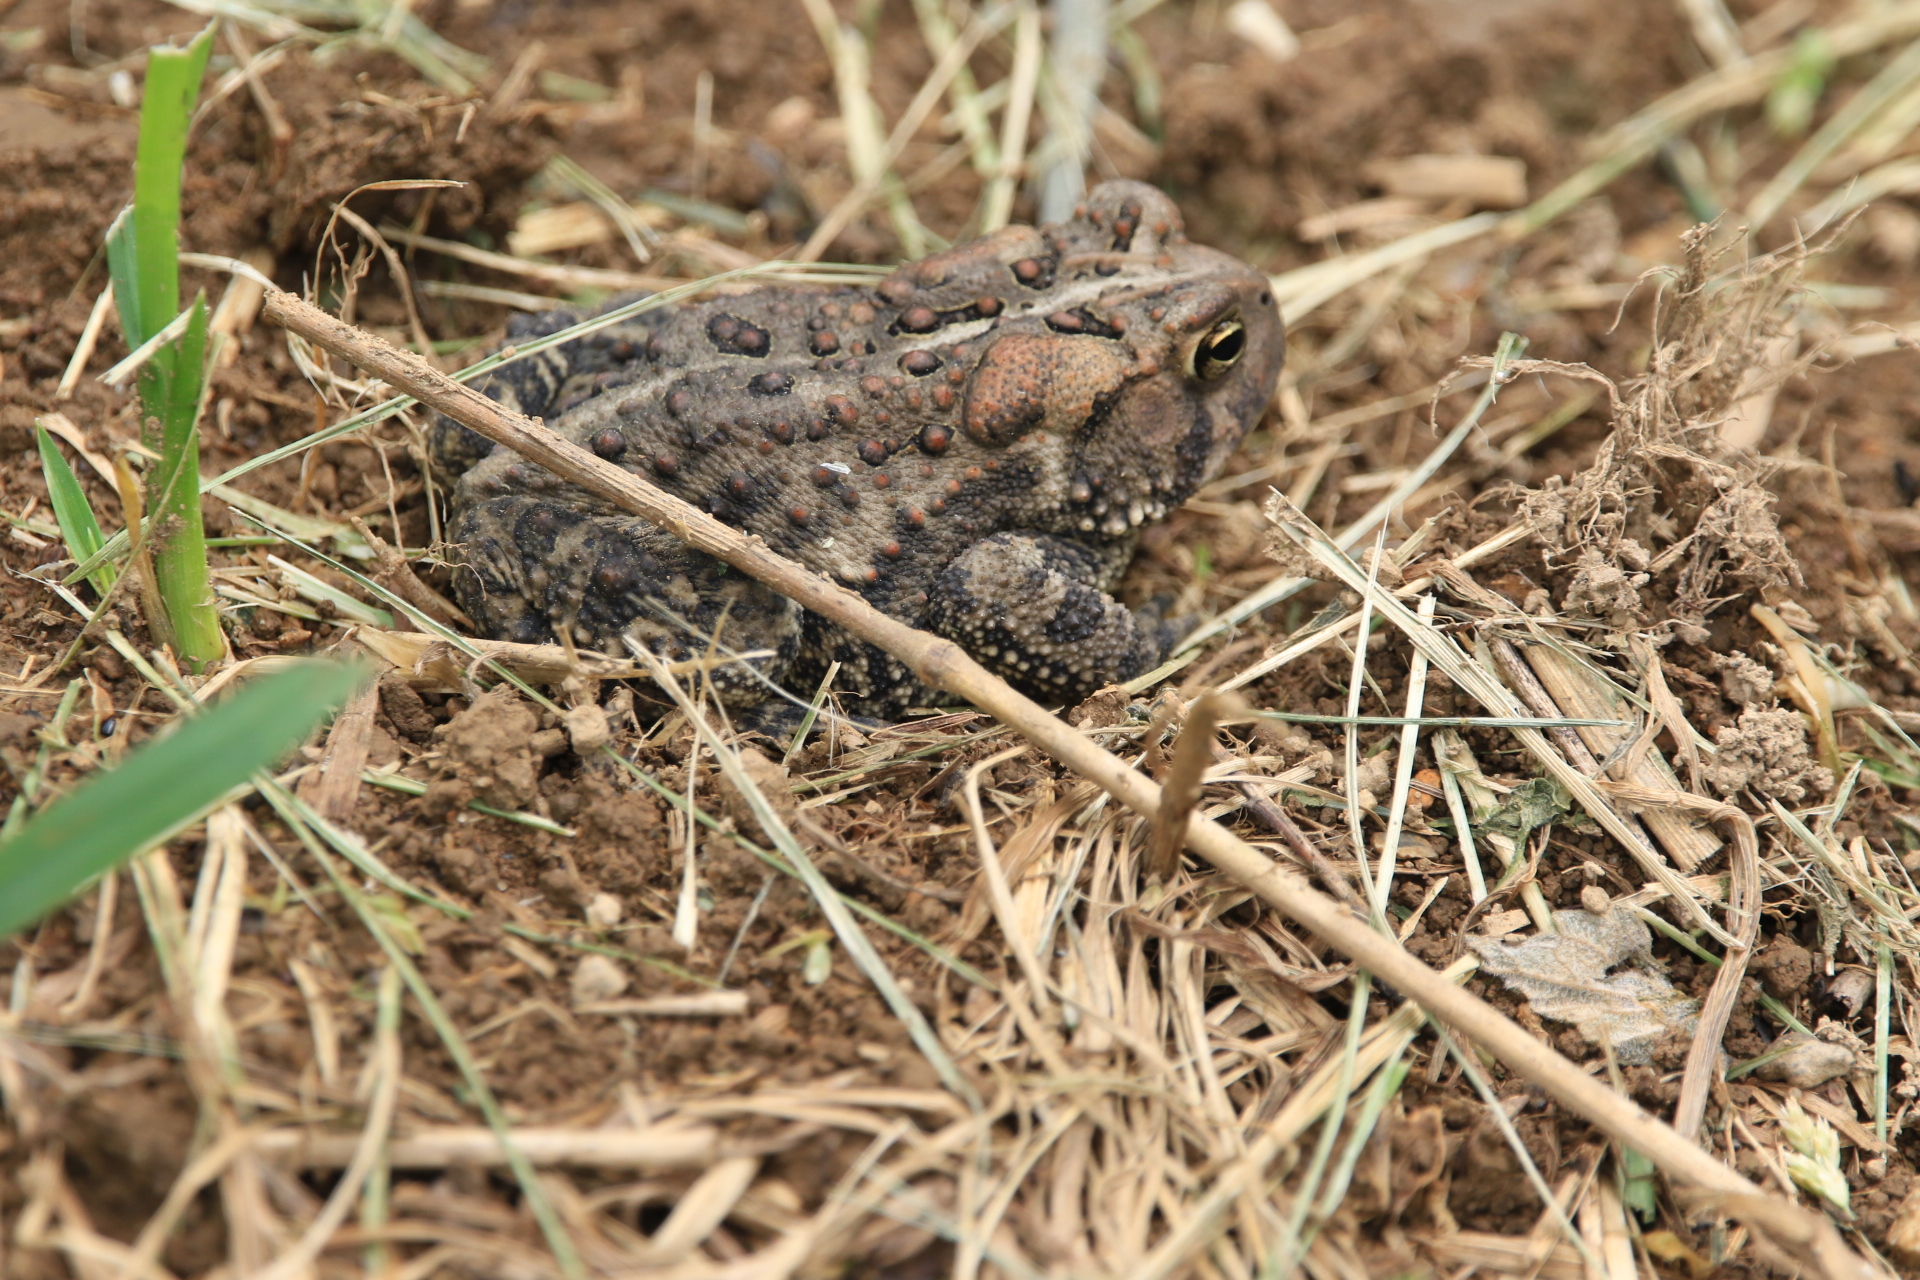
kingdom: Animalia
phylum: Chordata
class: Amphibia
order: Anura
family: Bufonidae
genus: Anaxyrus
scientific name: Anaxyrus americanus
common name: American toad
